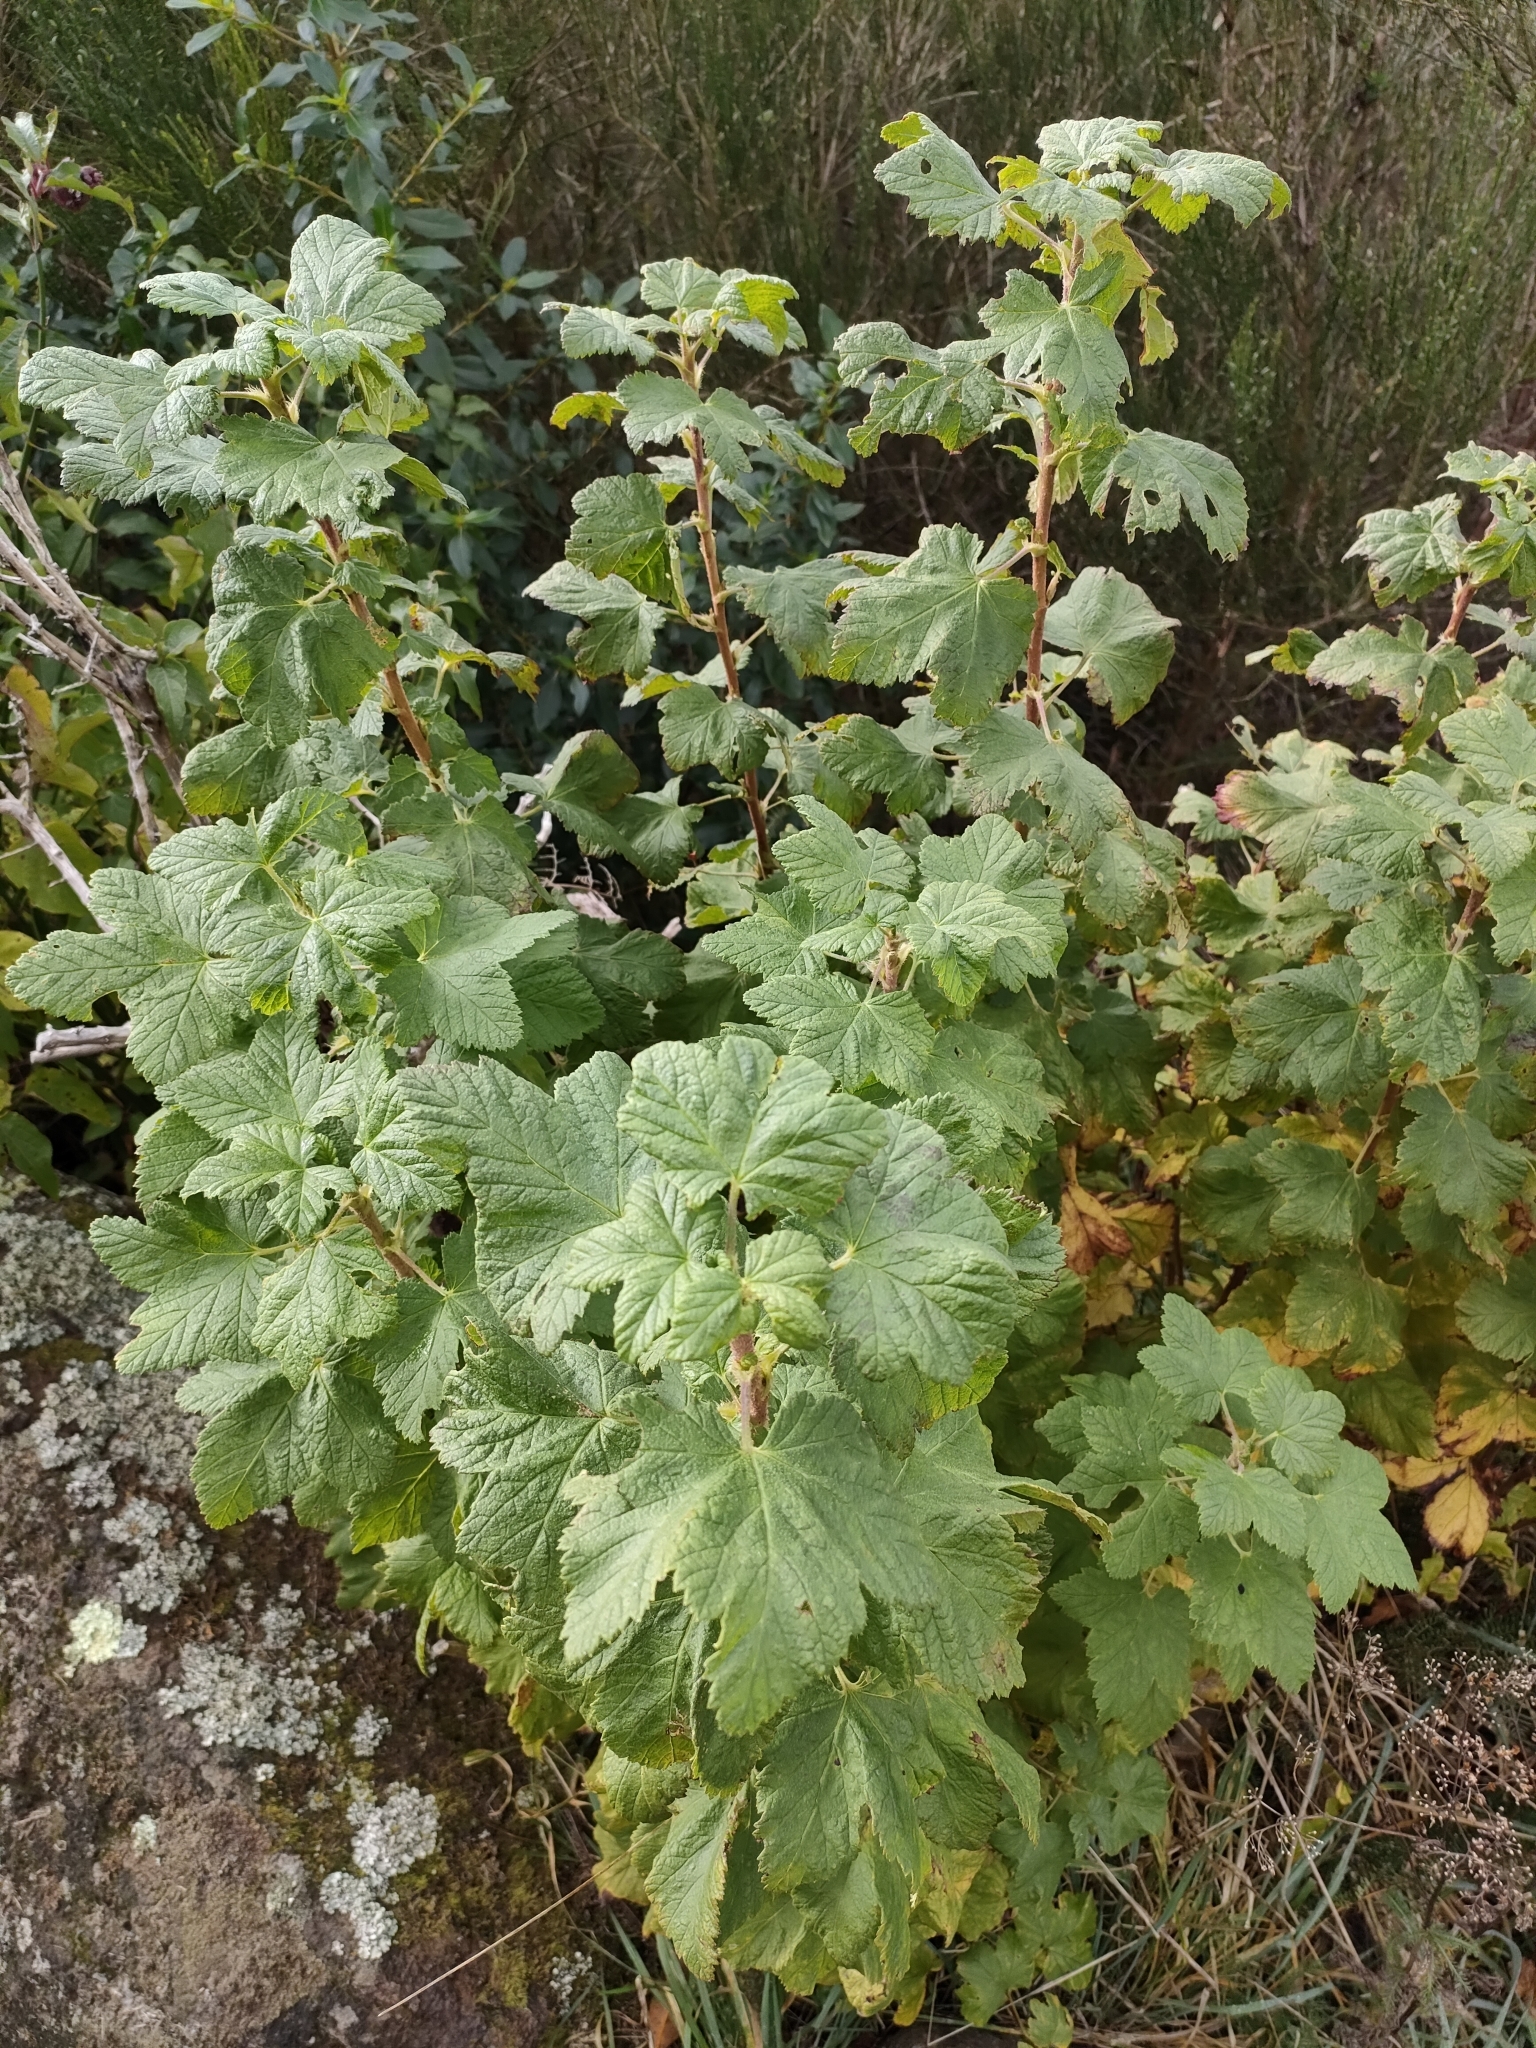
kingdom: Plantae
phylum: Tracheophyta
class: Magnoliopsida
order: Saxifragales
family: Grossulariaceae
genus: Ribes
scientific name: Ribes sanguineum
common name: Flowering currant
